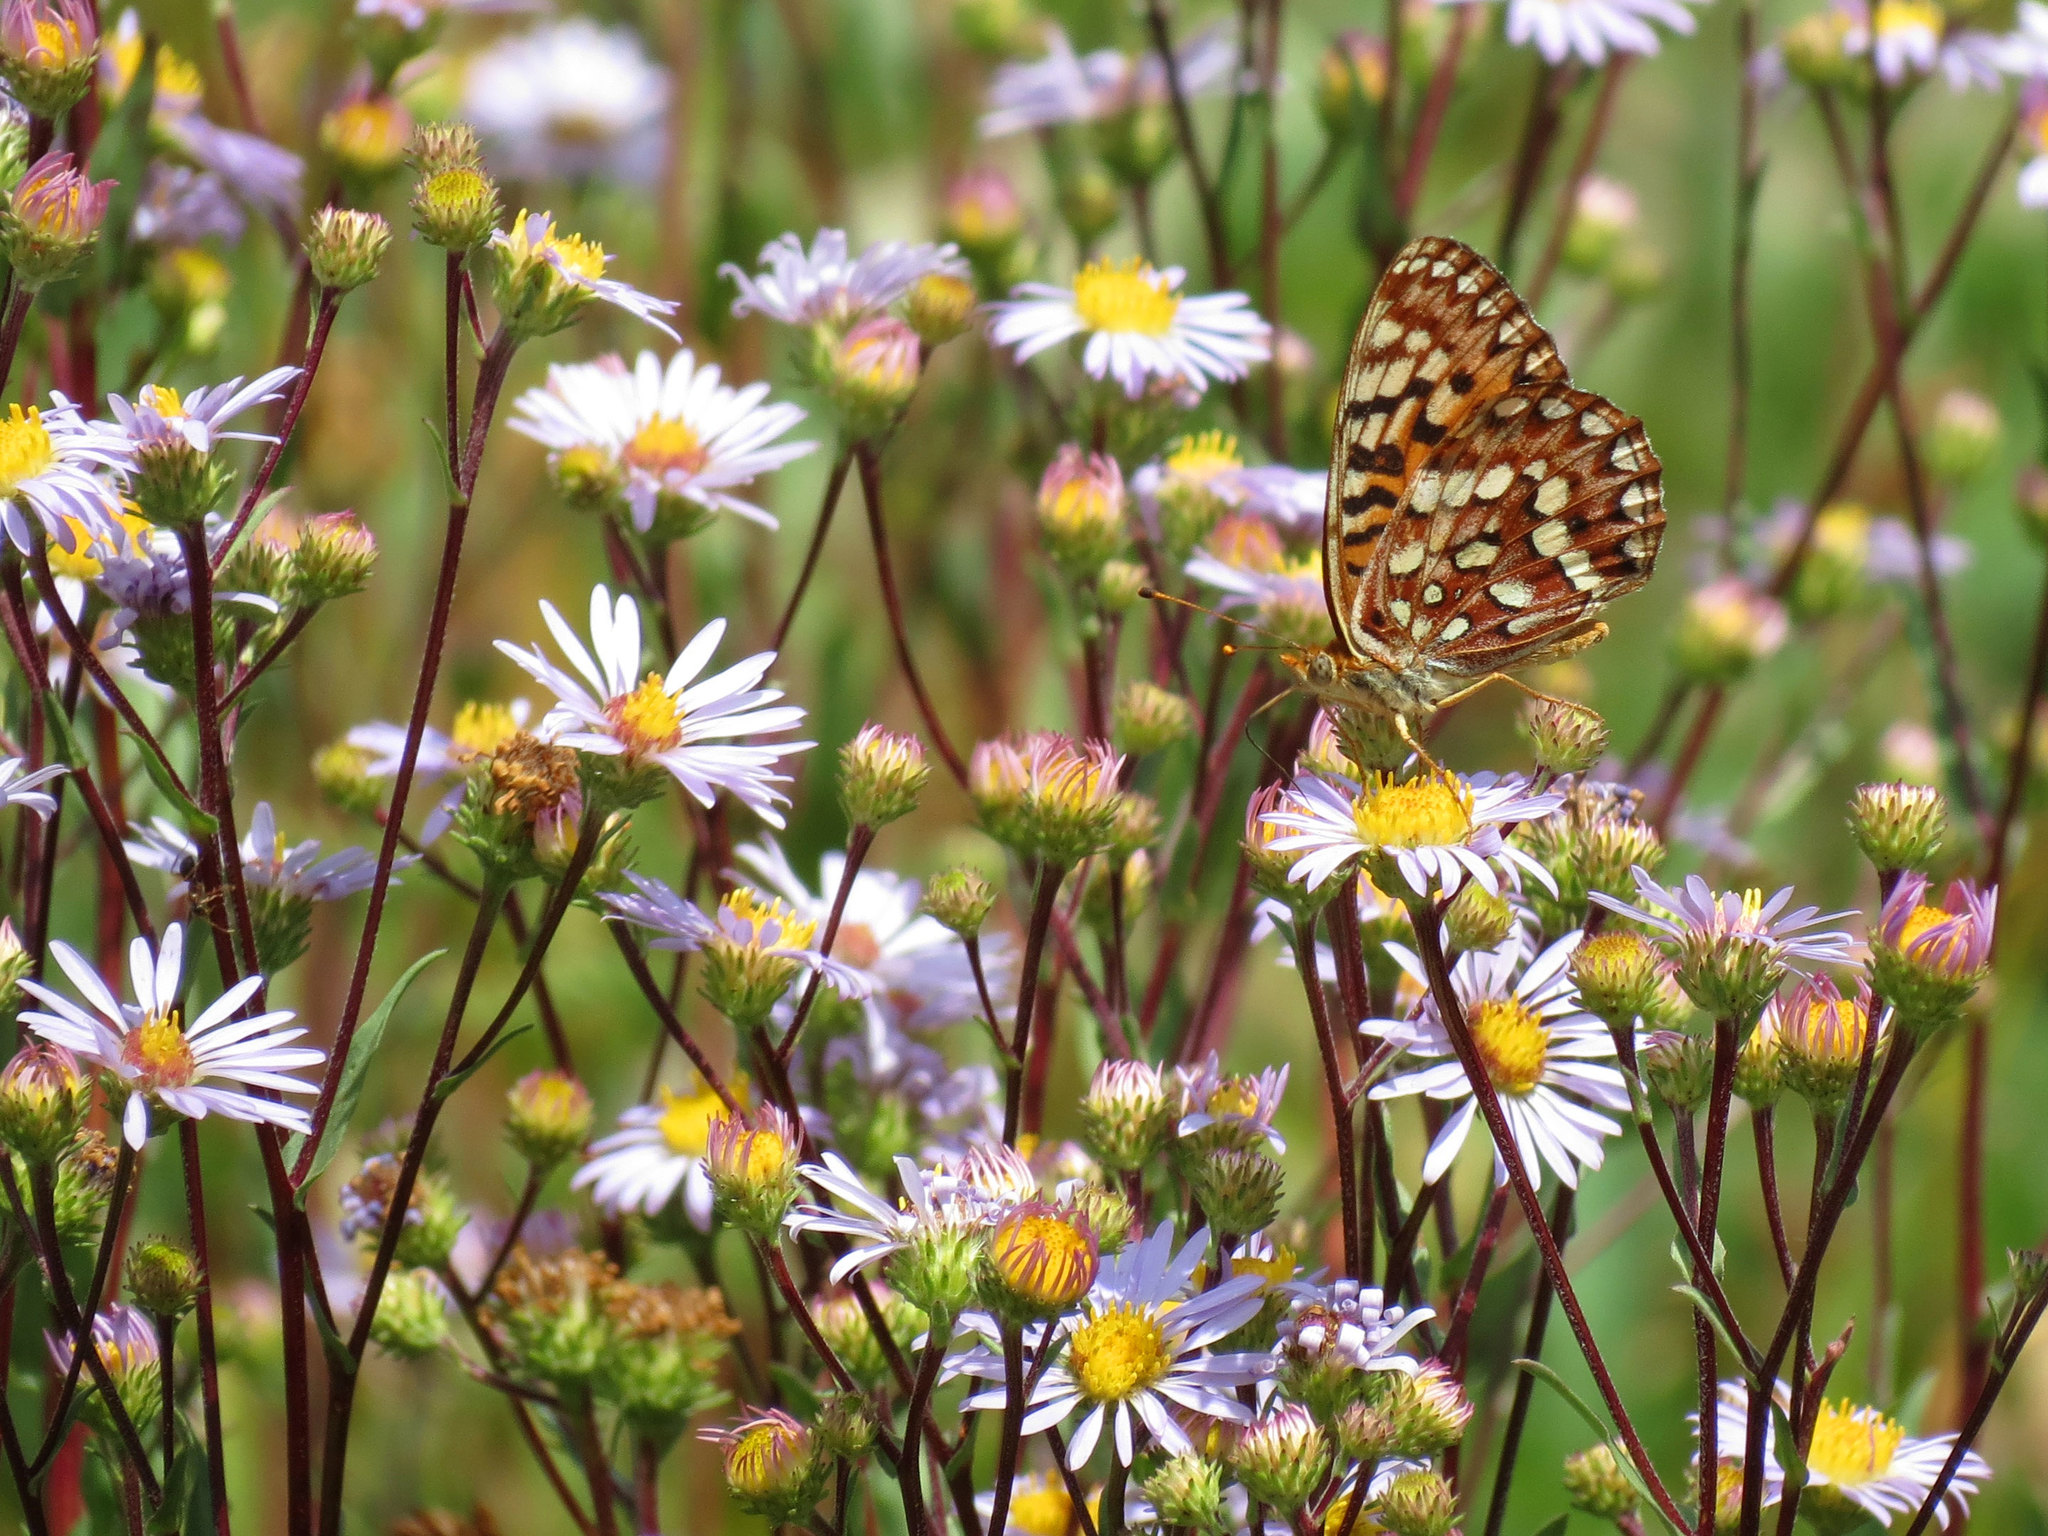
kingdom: Animalia
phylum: Arthropoda
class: Insecta
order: Lepidoptera
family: Nymphalidae
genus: Speyeria
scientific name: Speyeria hydaspe
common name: Hydaspe fritillary
